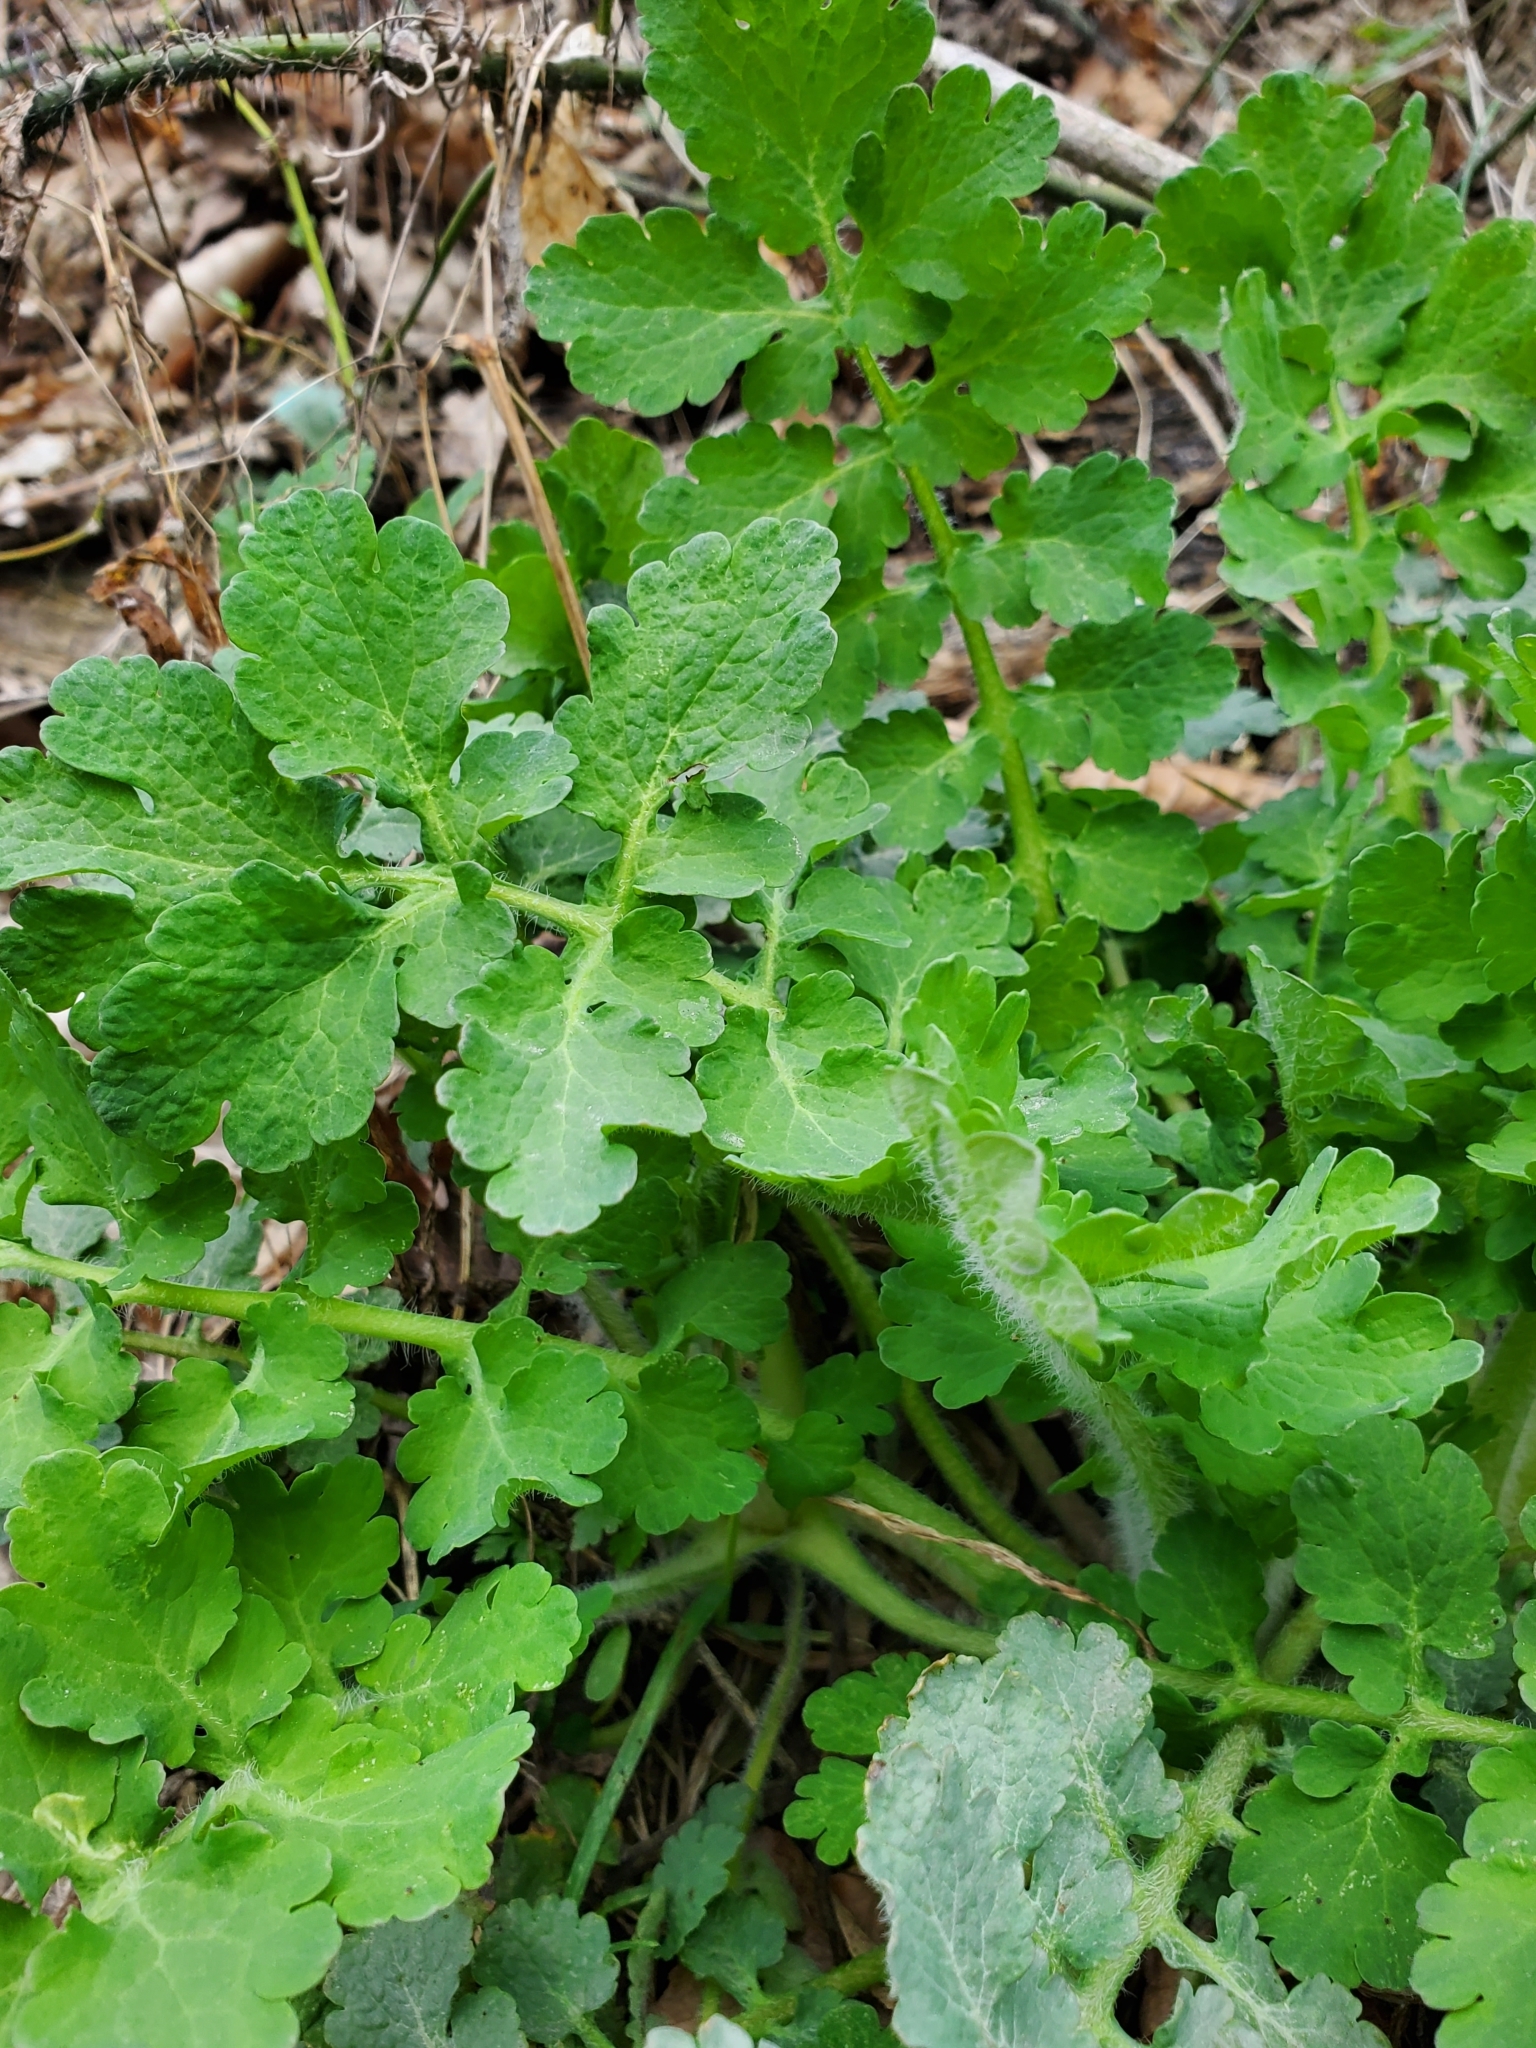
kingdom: Plantae
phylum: Tracheophyta
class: Magnoliopsida
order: Ranunculales
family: Papaveraceae
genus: Chelidonium
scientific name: Chelidonium majus
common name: Greater celandine
